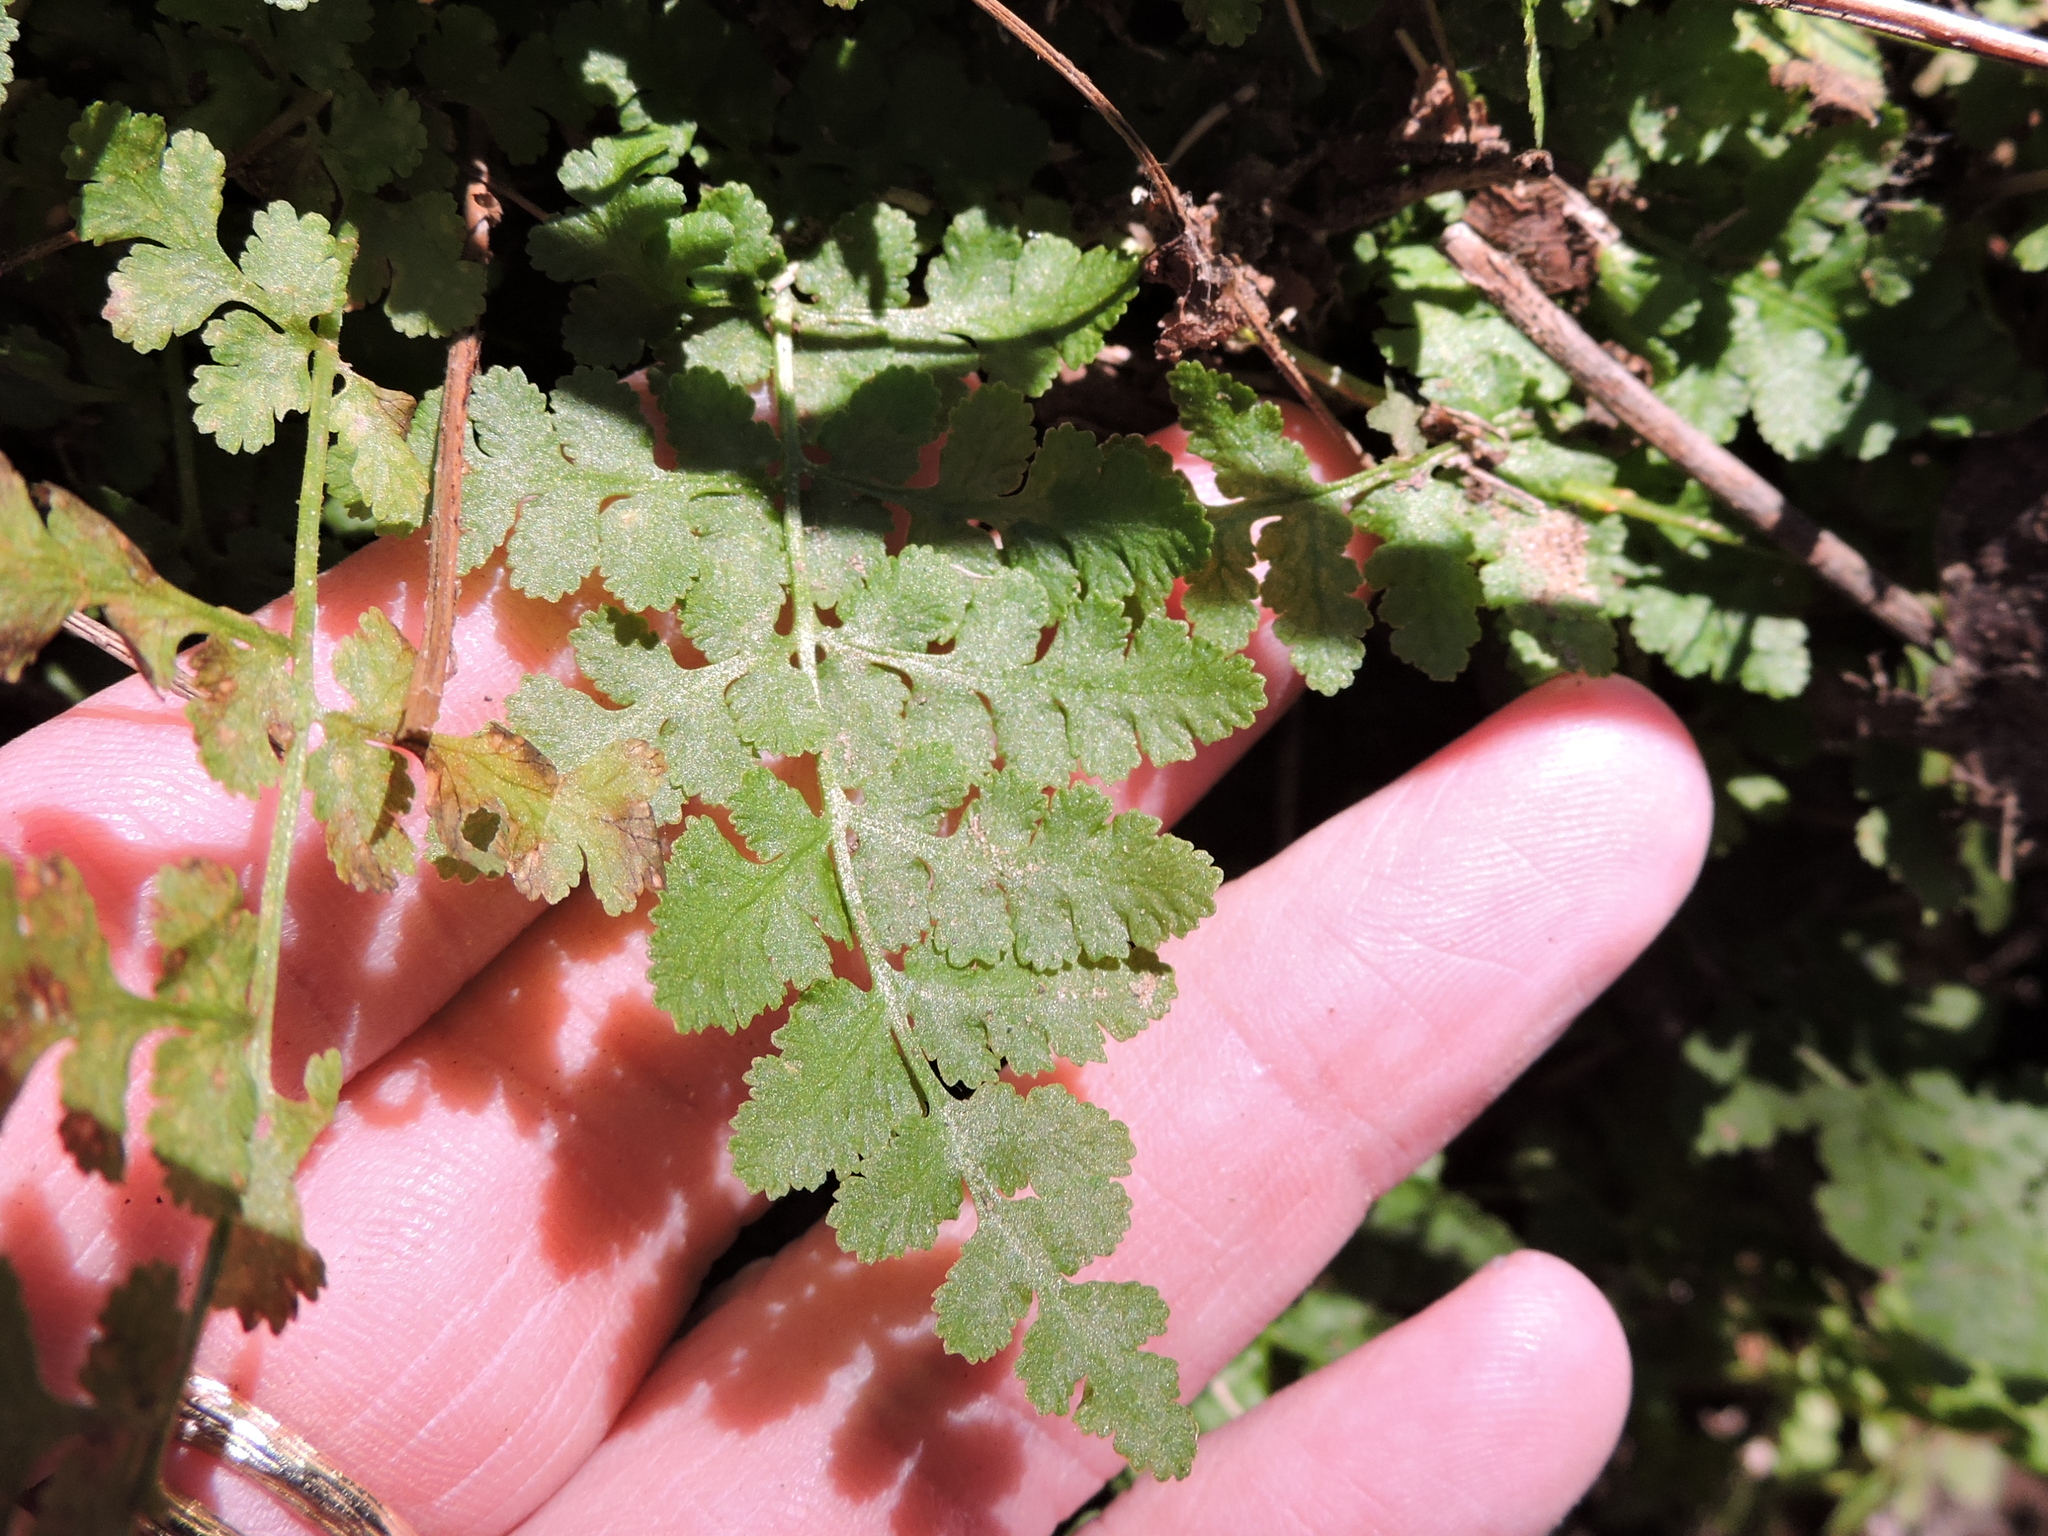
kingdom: Plantae
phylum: Tracheophyta
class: Polypodiopsida
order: Polypodiales
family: Woodsiaceae
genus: Physematium
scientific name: Physematium obtusum
